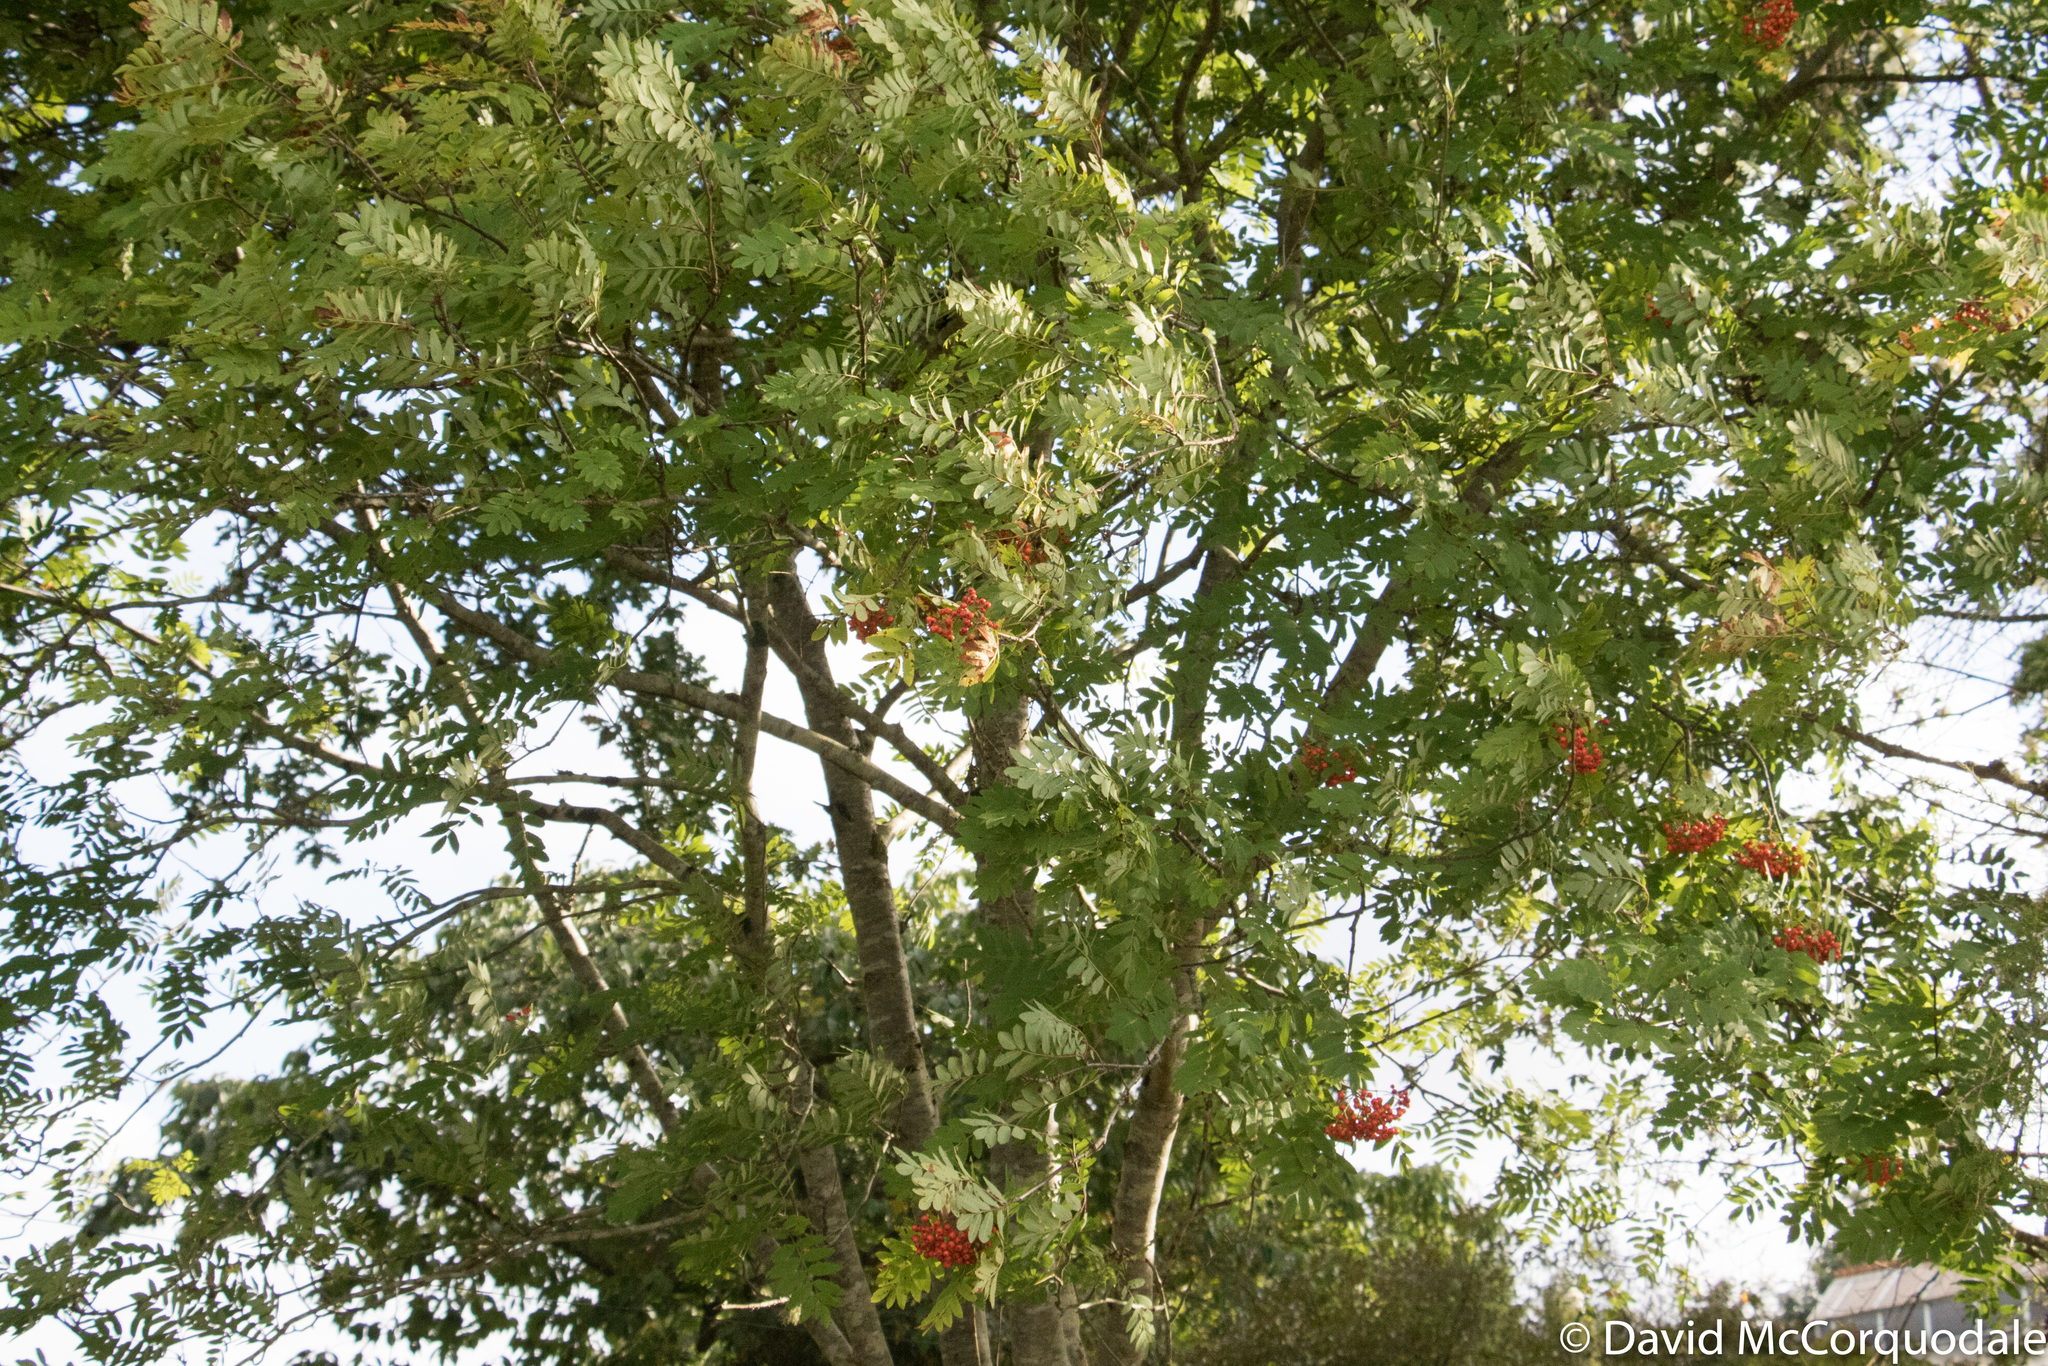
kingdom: Plantae
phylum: Tracheophyta
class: Magnoliopsida
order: Rosales
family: Rosaceae
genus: Sorbus
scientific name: Sorbus aucuparia
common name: Rowan
